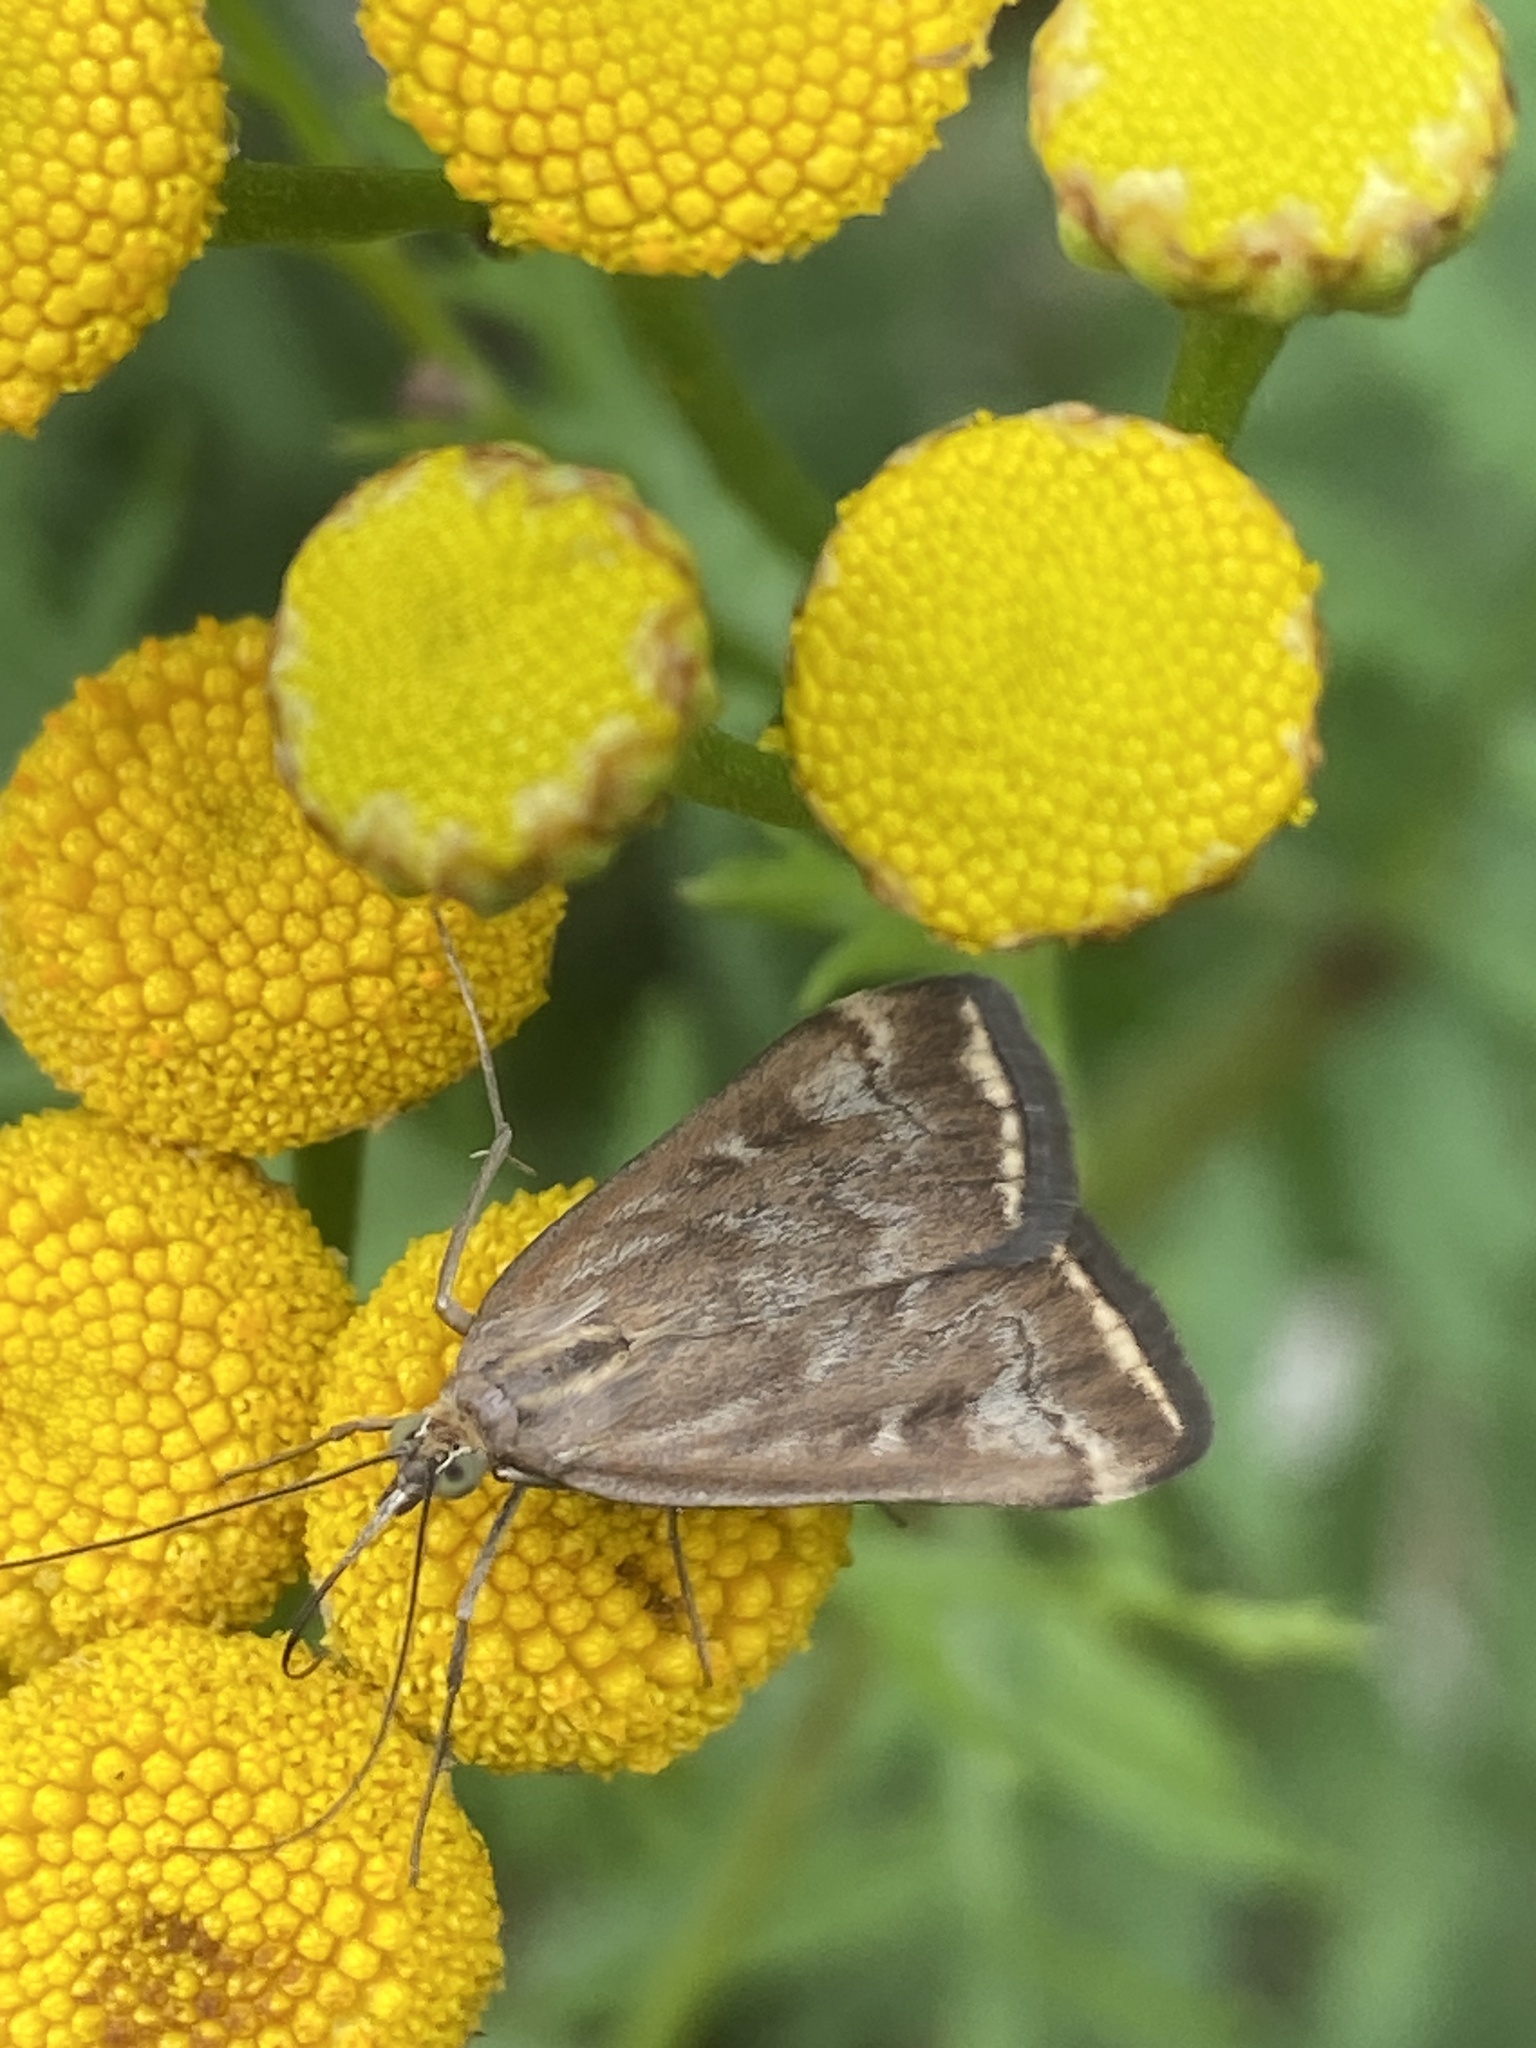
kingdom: Animalia
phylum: Arthropoda
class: Insecta
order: Lepidoptera
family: Crambidae
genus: Loxostege
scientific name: Loxostege sticticalis
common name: Crambid moth
